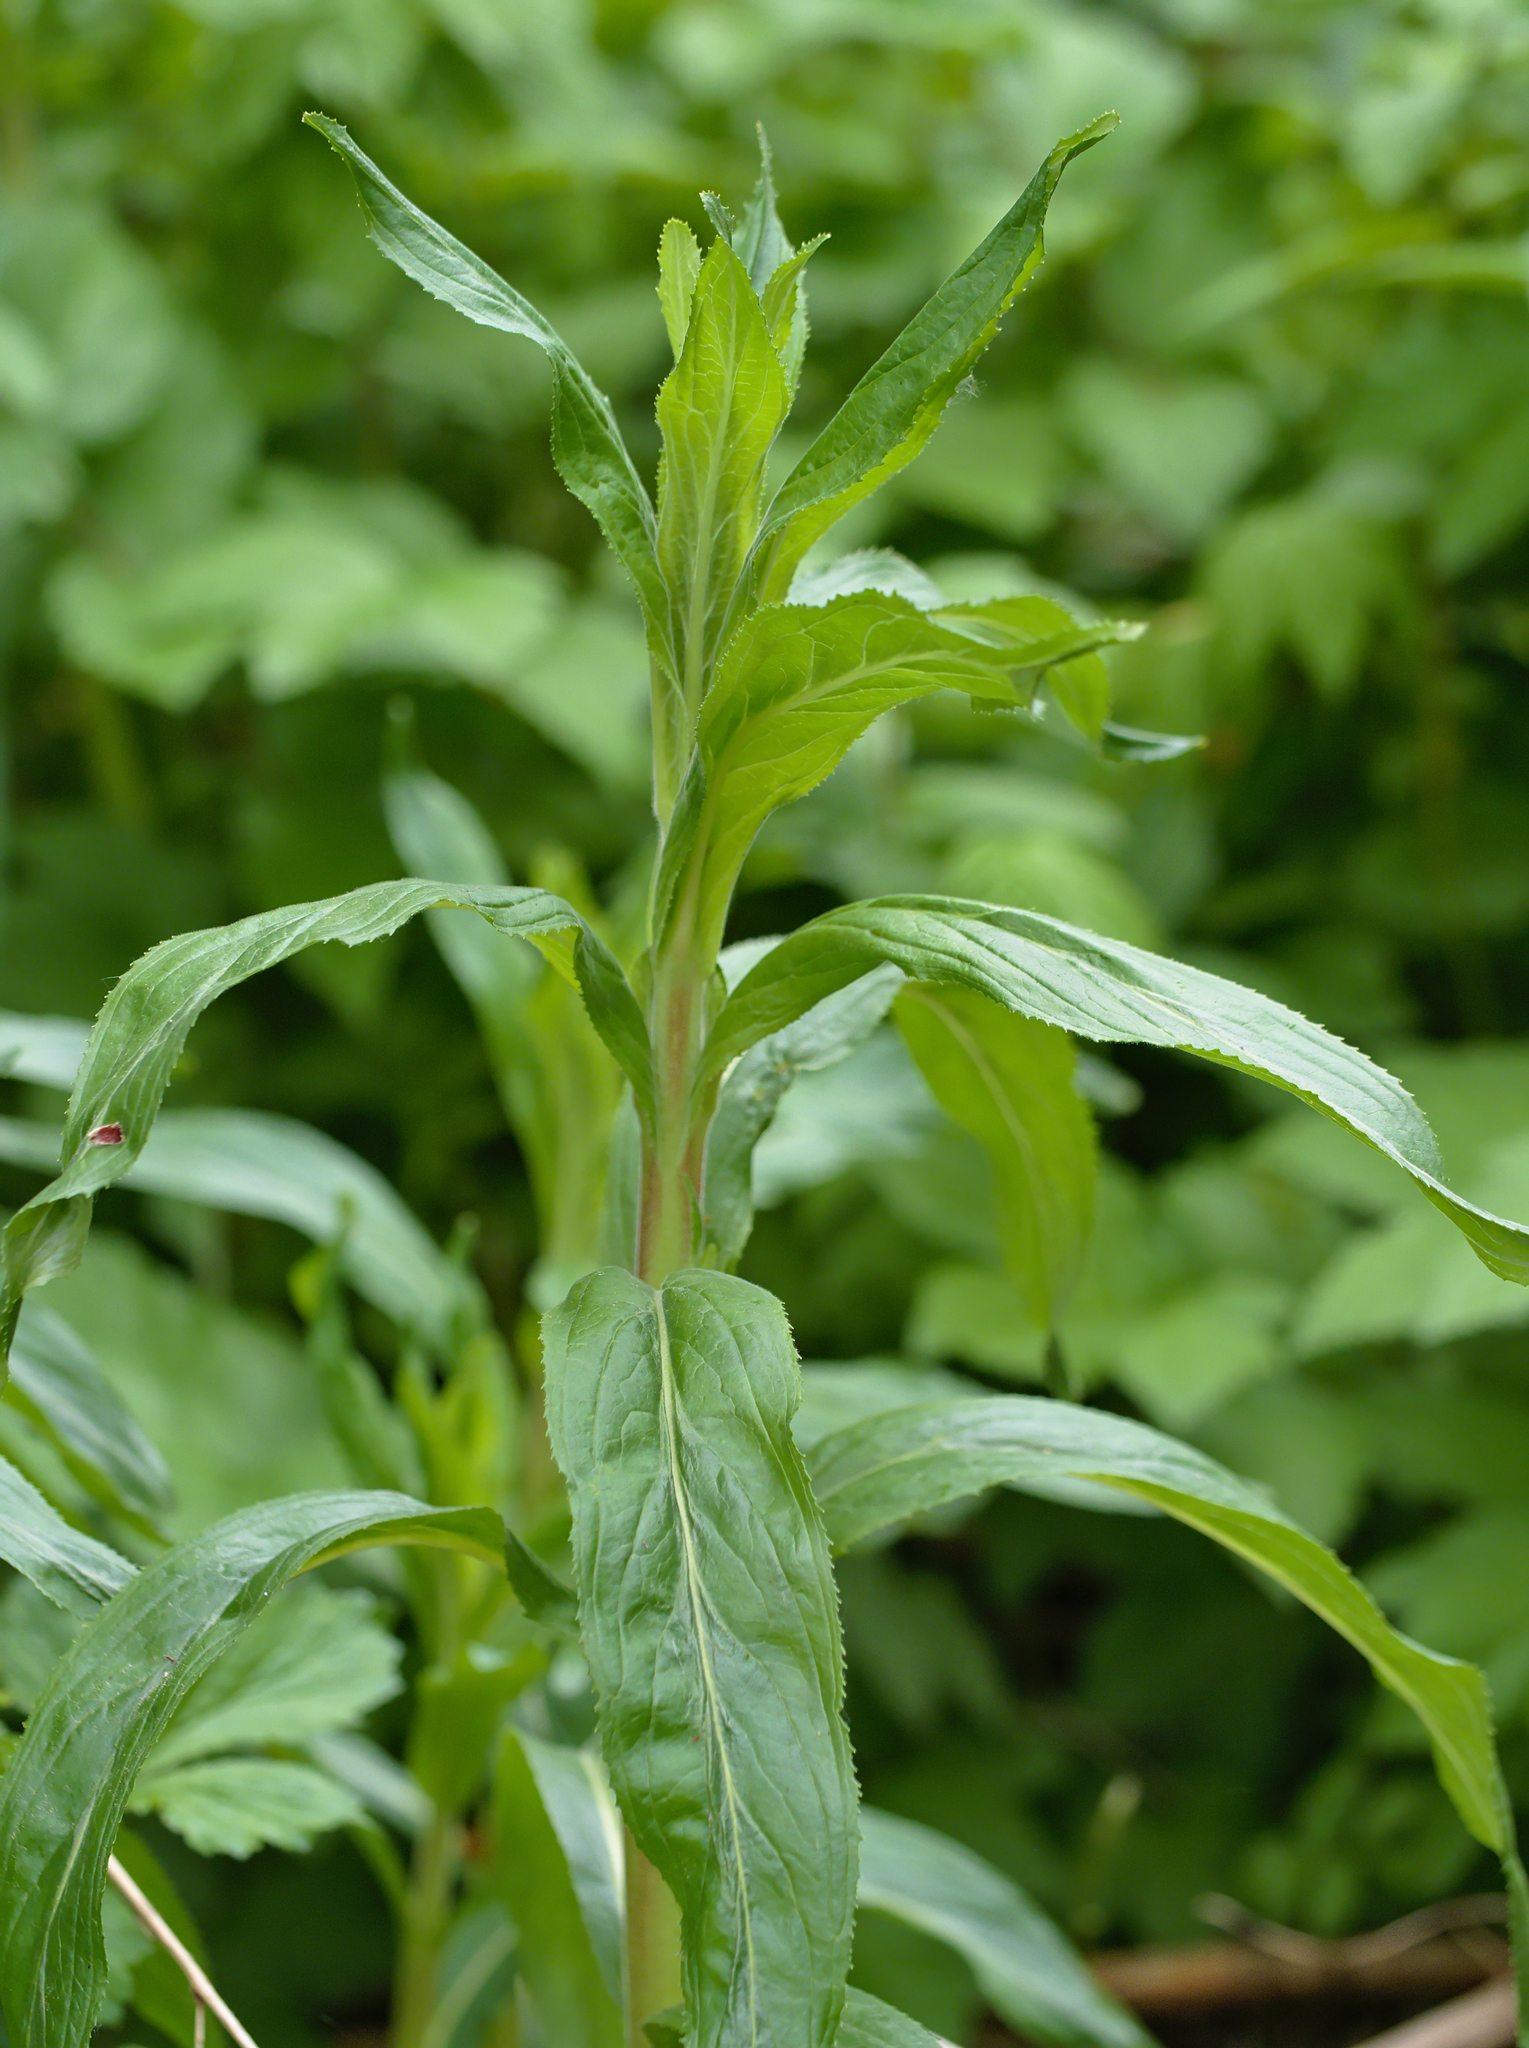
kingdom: Plantae
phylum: Tracheophyta
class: Magnoliopsida
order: Myrtales
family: Onagraceae
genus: Epilobium
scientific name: Epilobium hirsutum
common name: Great willowherb
